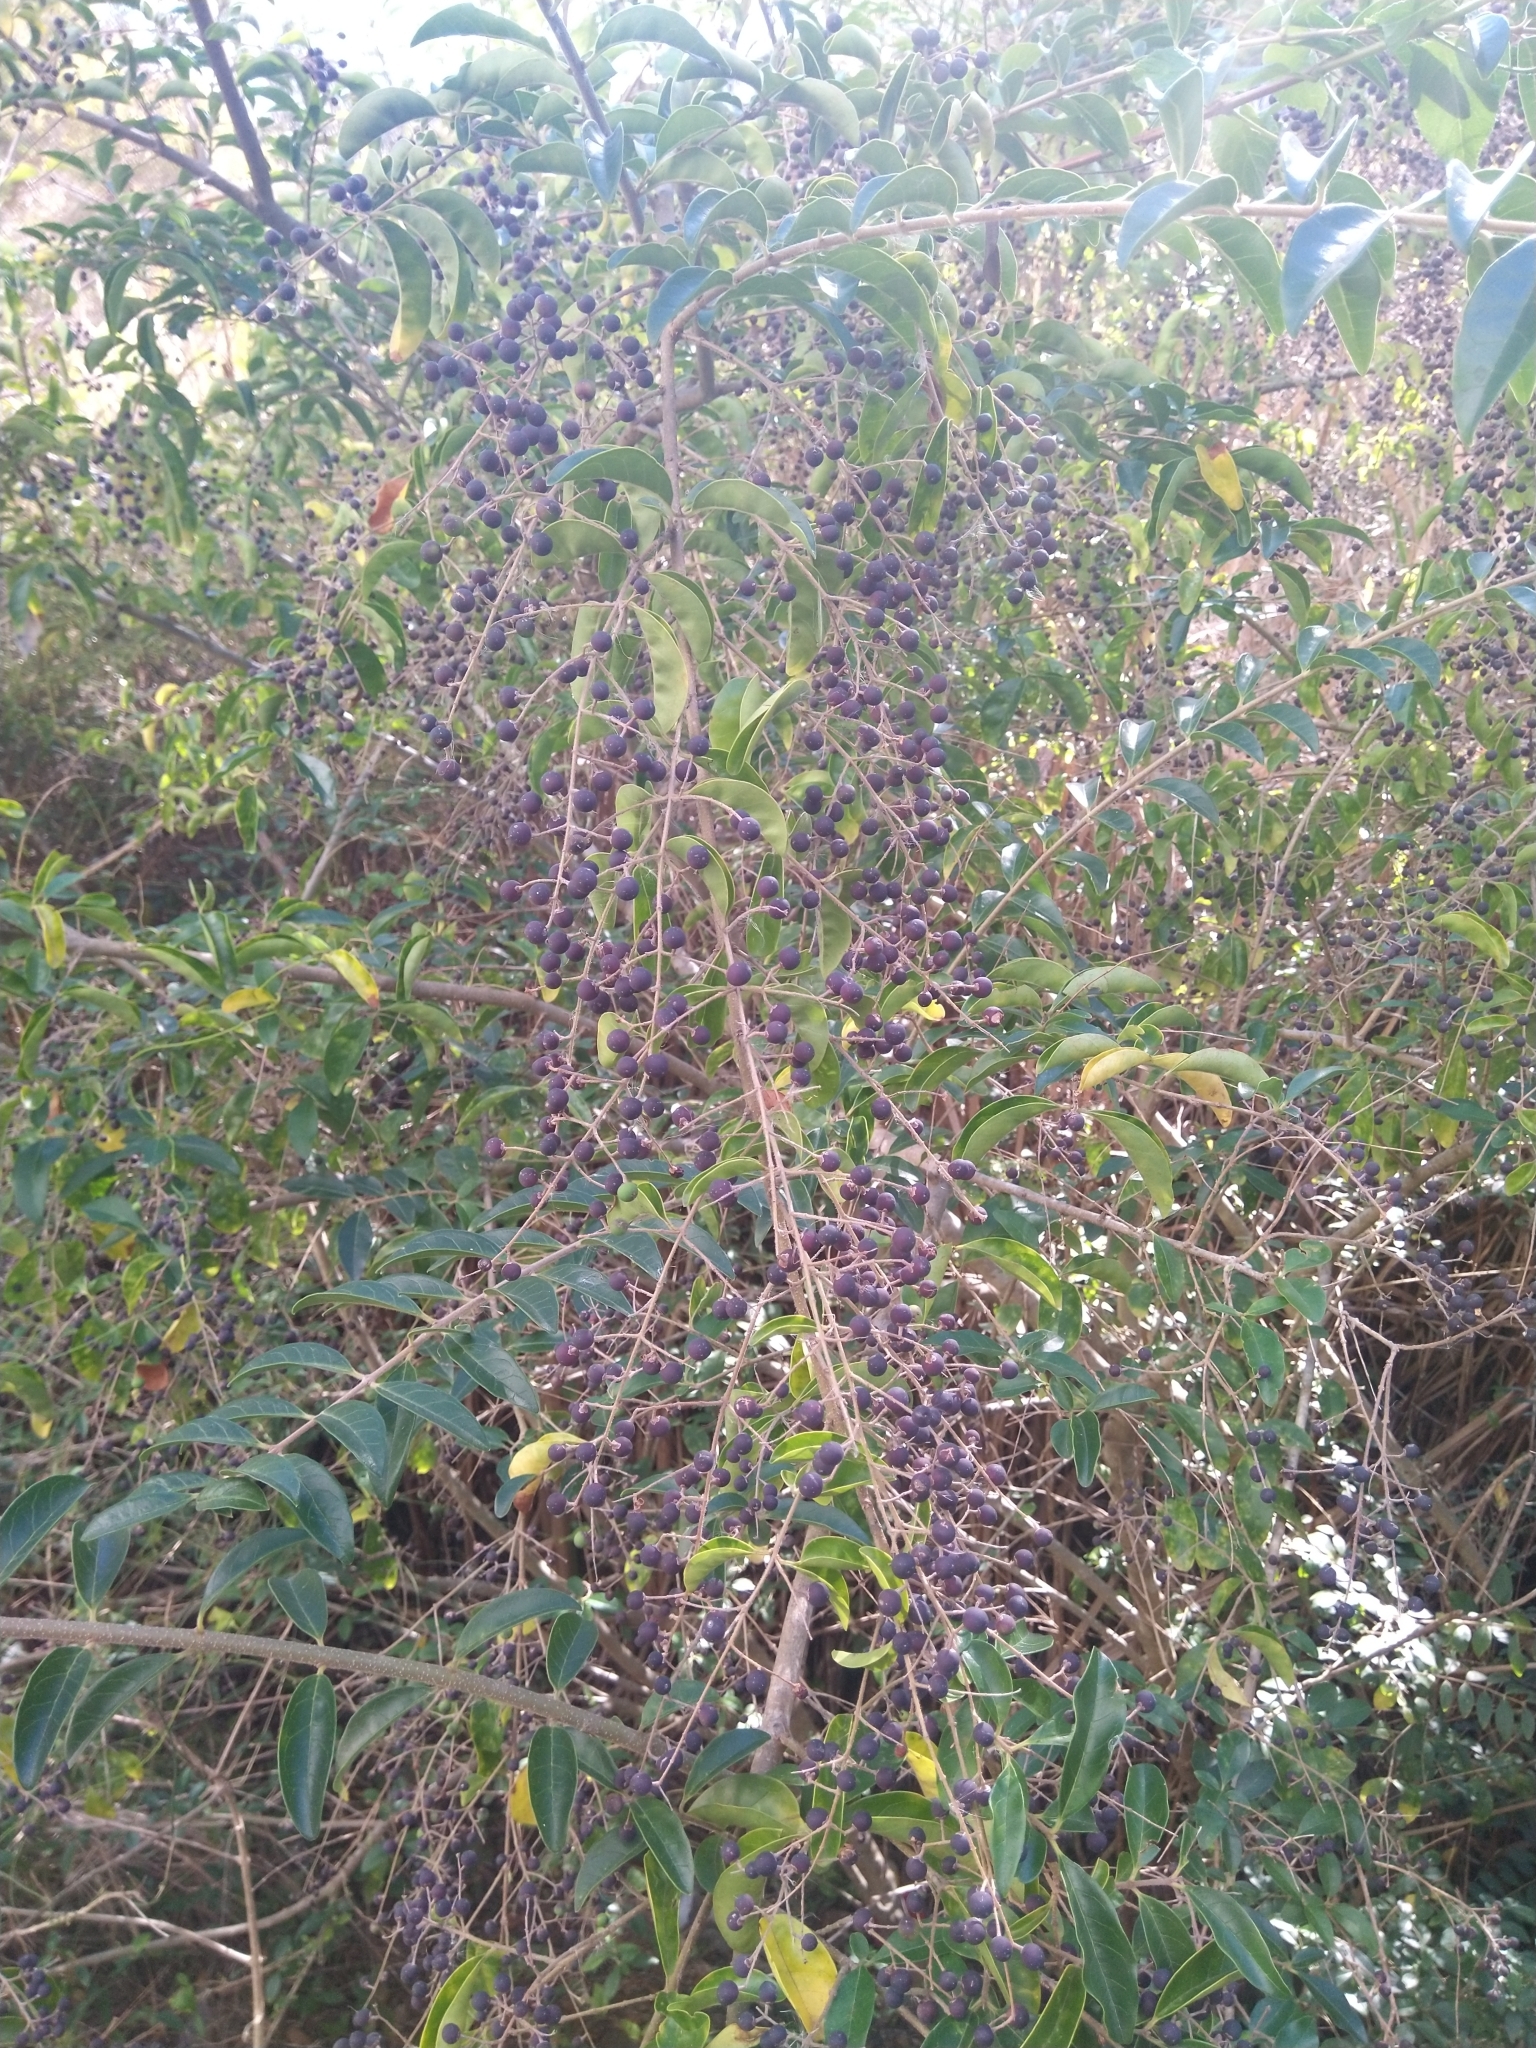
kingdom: Plantae
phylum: Tracheophyta
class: Magnoliopsida
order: Lamiales
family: Oleaceae
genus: Ligustrum
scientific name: Ligustrum sinense
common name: Chinese privet
